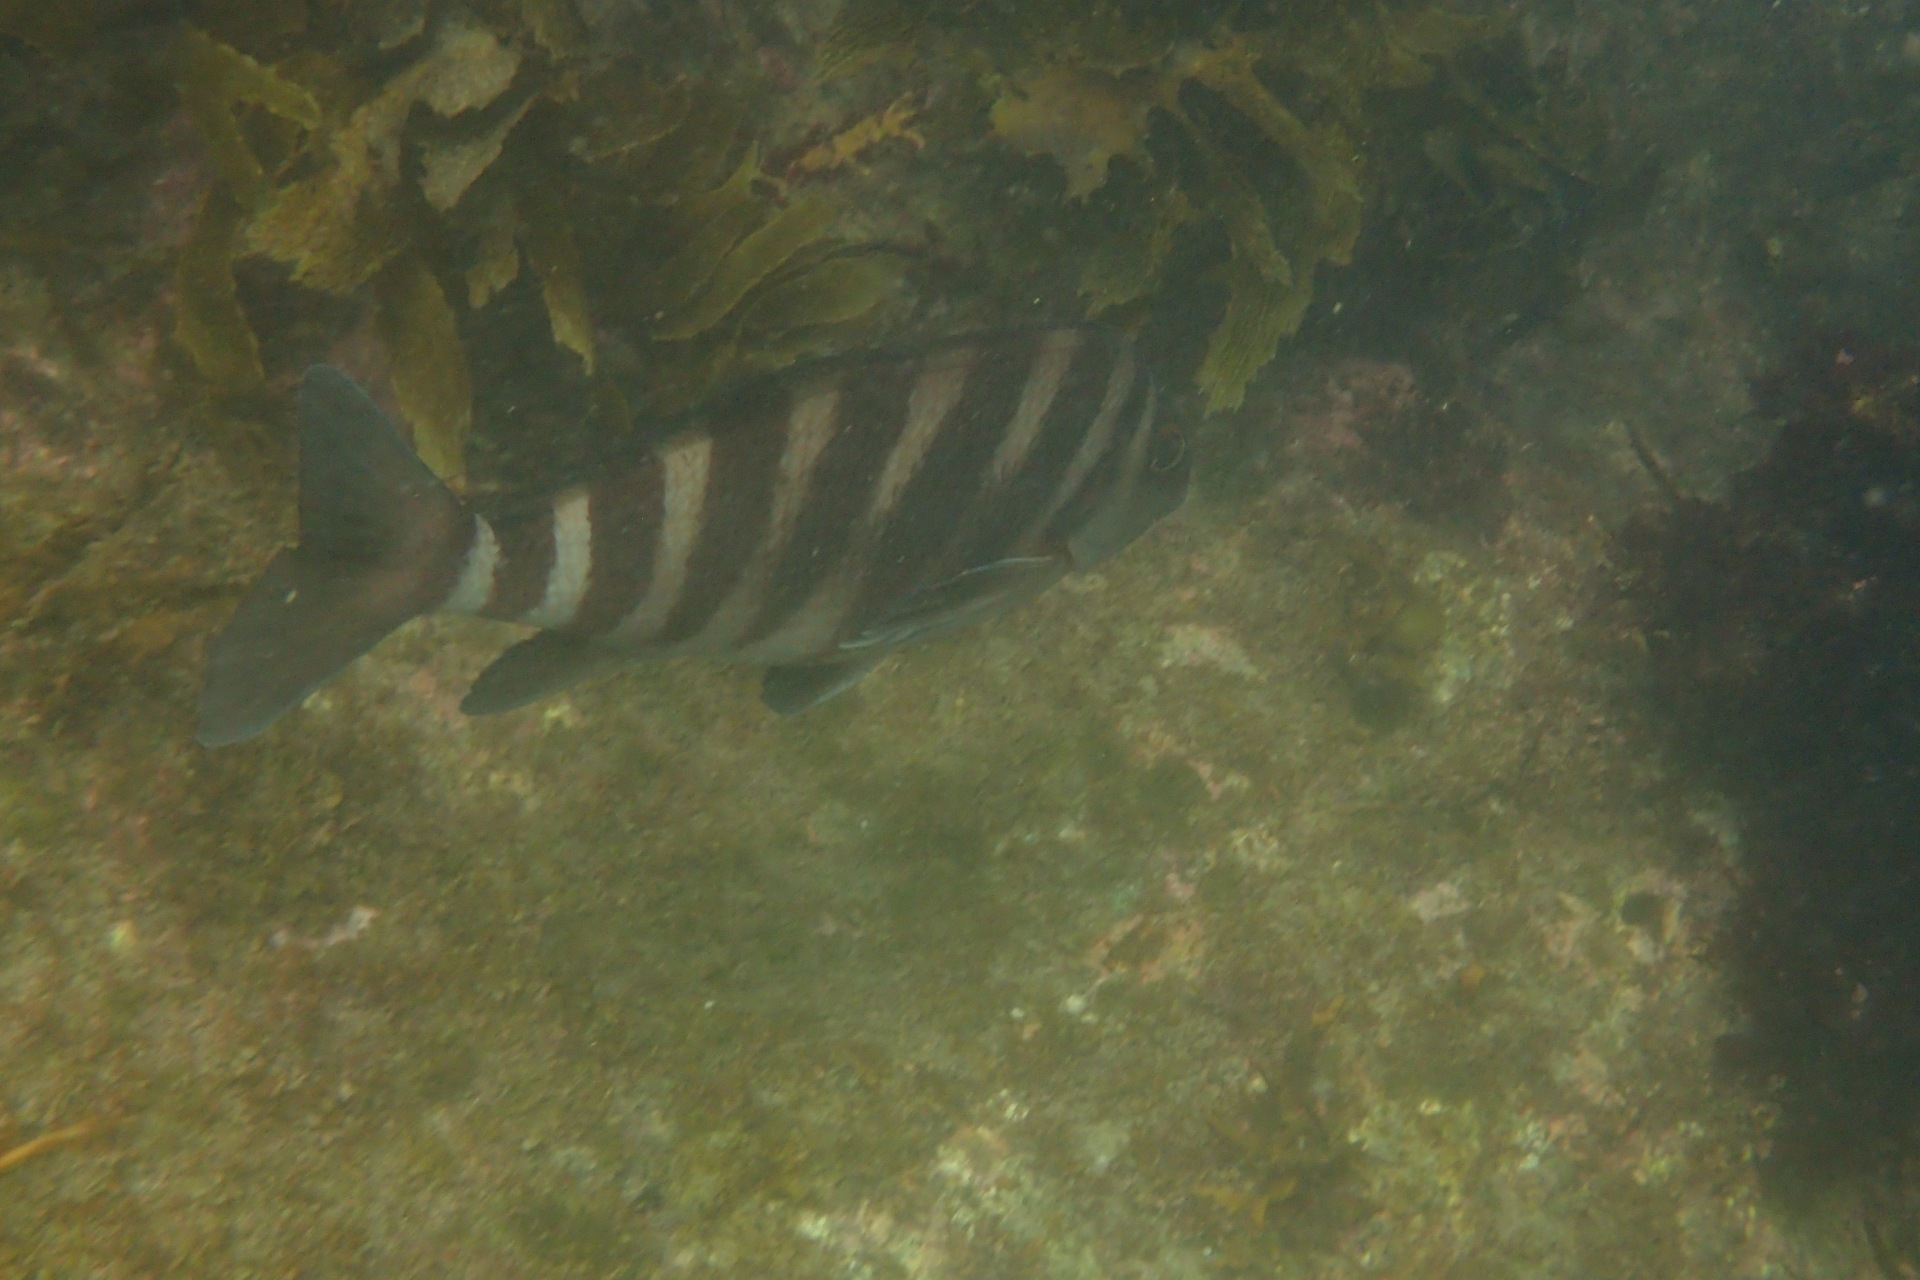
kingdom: Animalia
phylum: Chordata
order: Perciformes
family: Cheilodactylidae
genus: Cheilodactylus
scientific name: Cheilodactylus spectabilis
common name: Red moki
